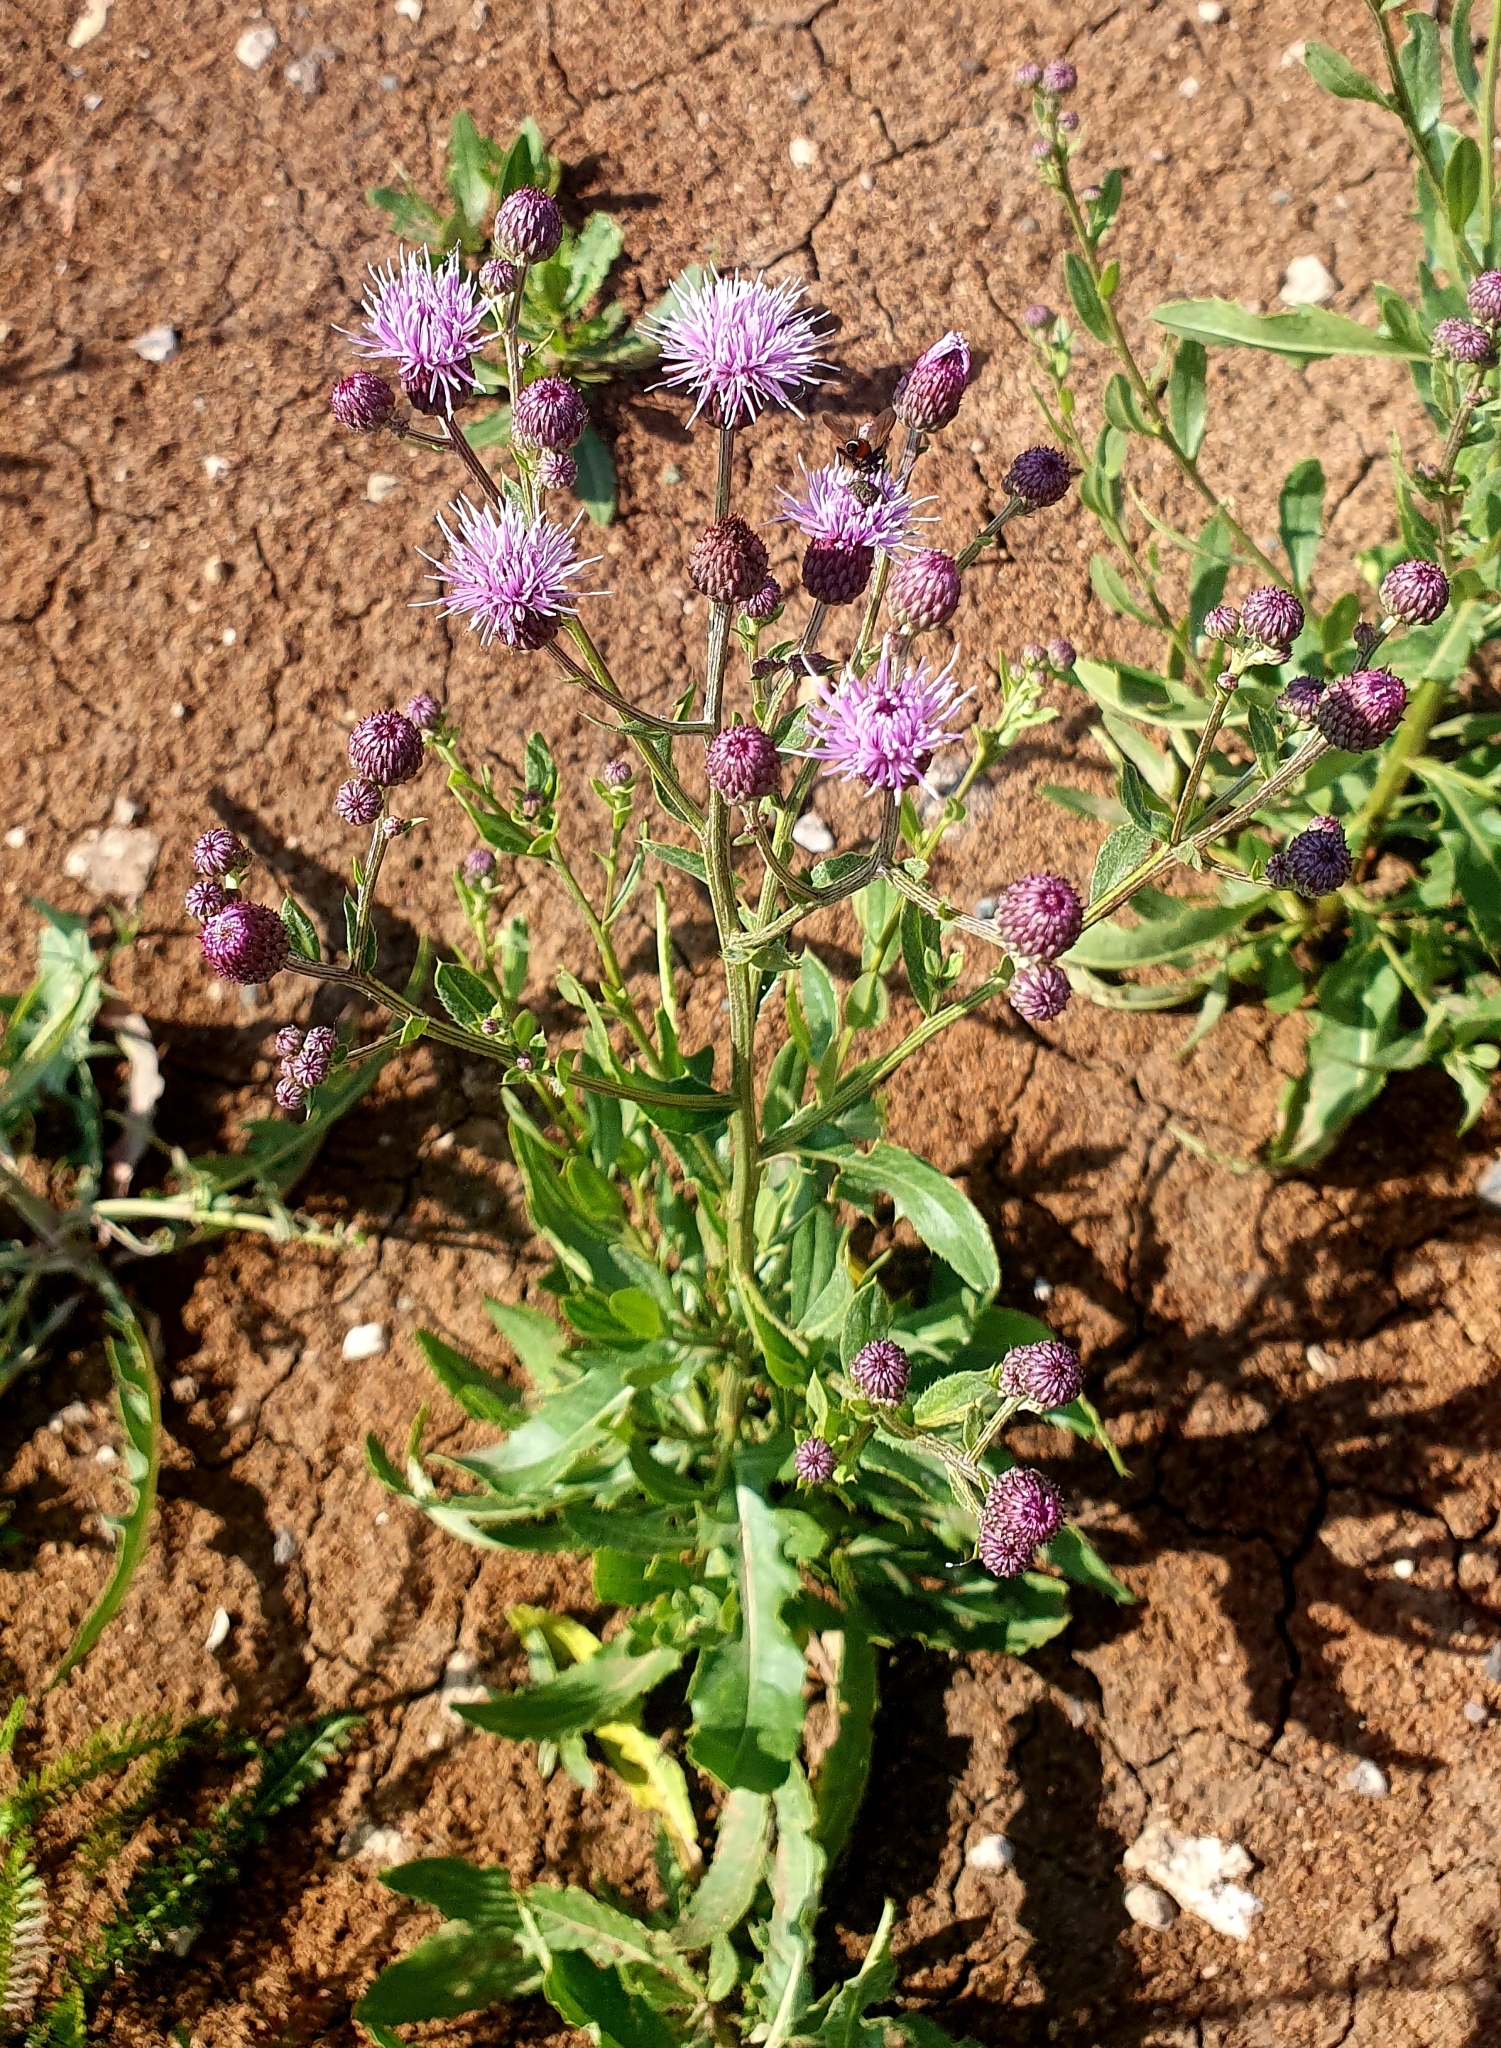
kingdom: Plantae
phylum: Tracheophyta
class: Magnoliopsida
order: Asterales
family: Asteraceae
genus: Cirsium
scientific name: Cirsium arvense
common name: Creeping thistle
